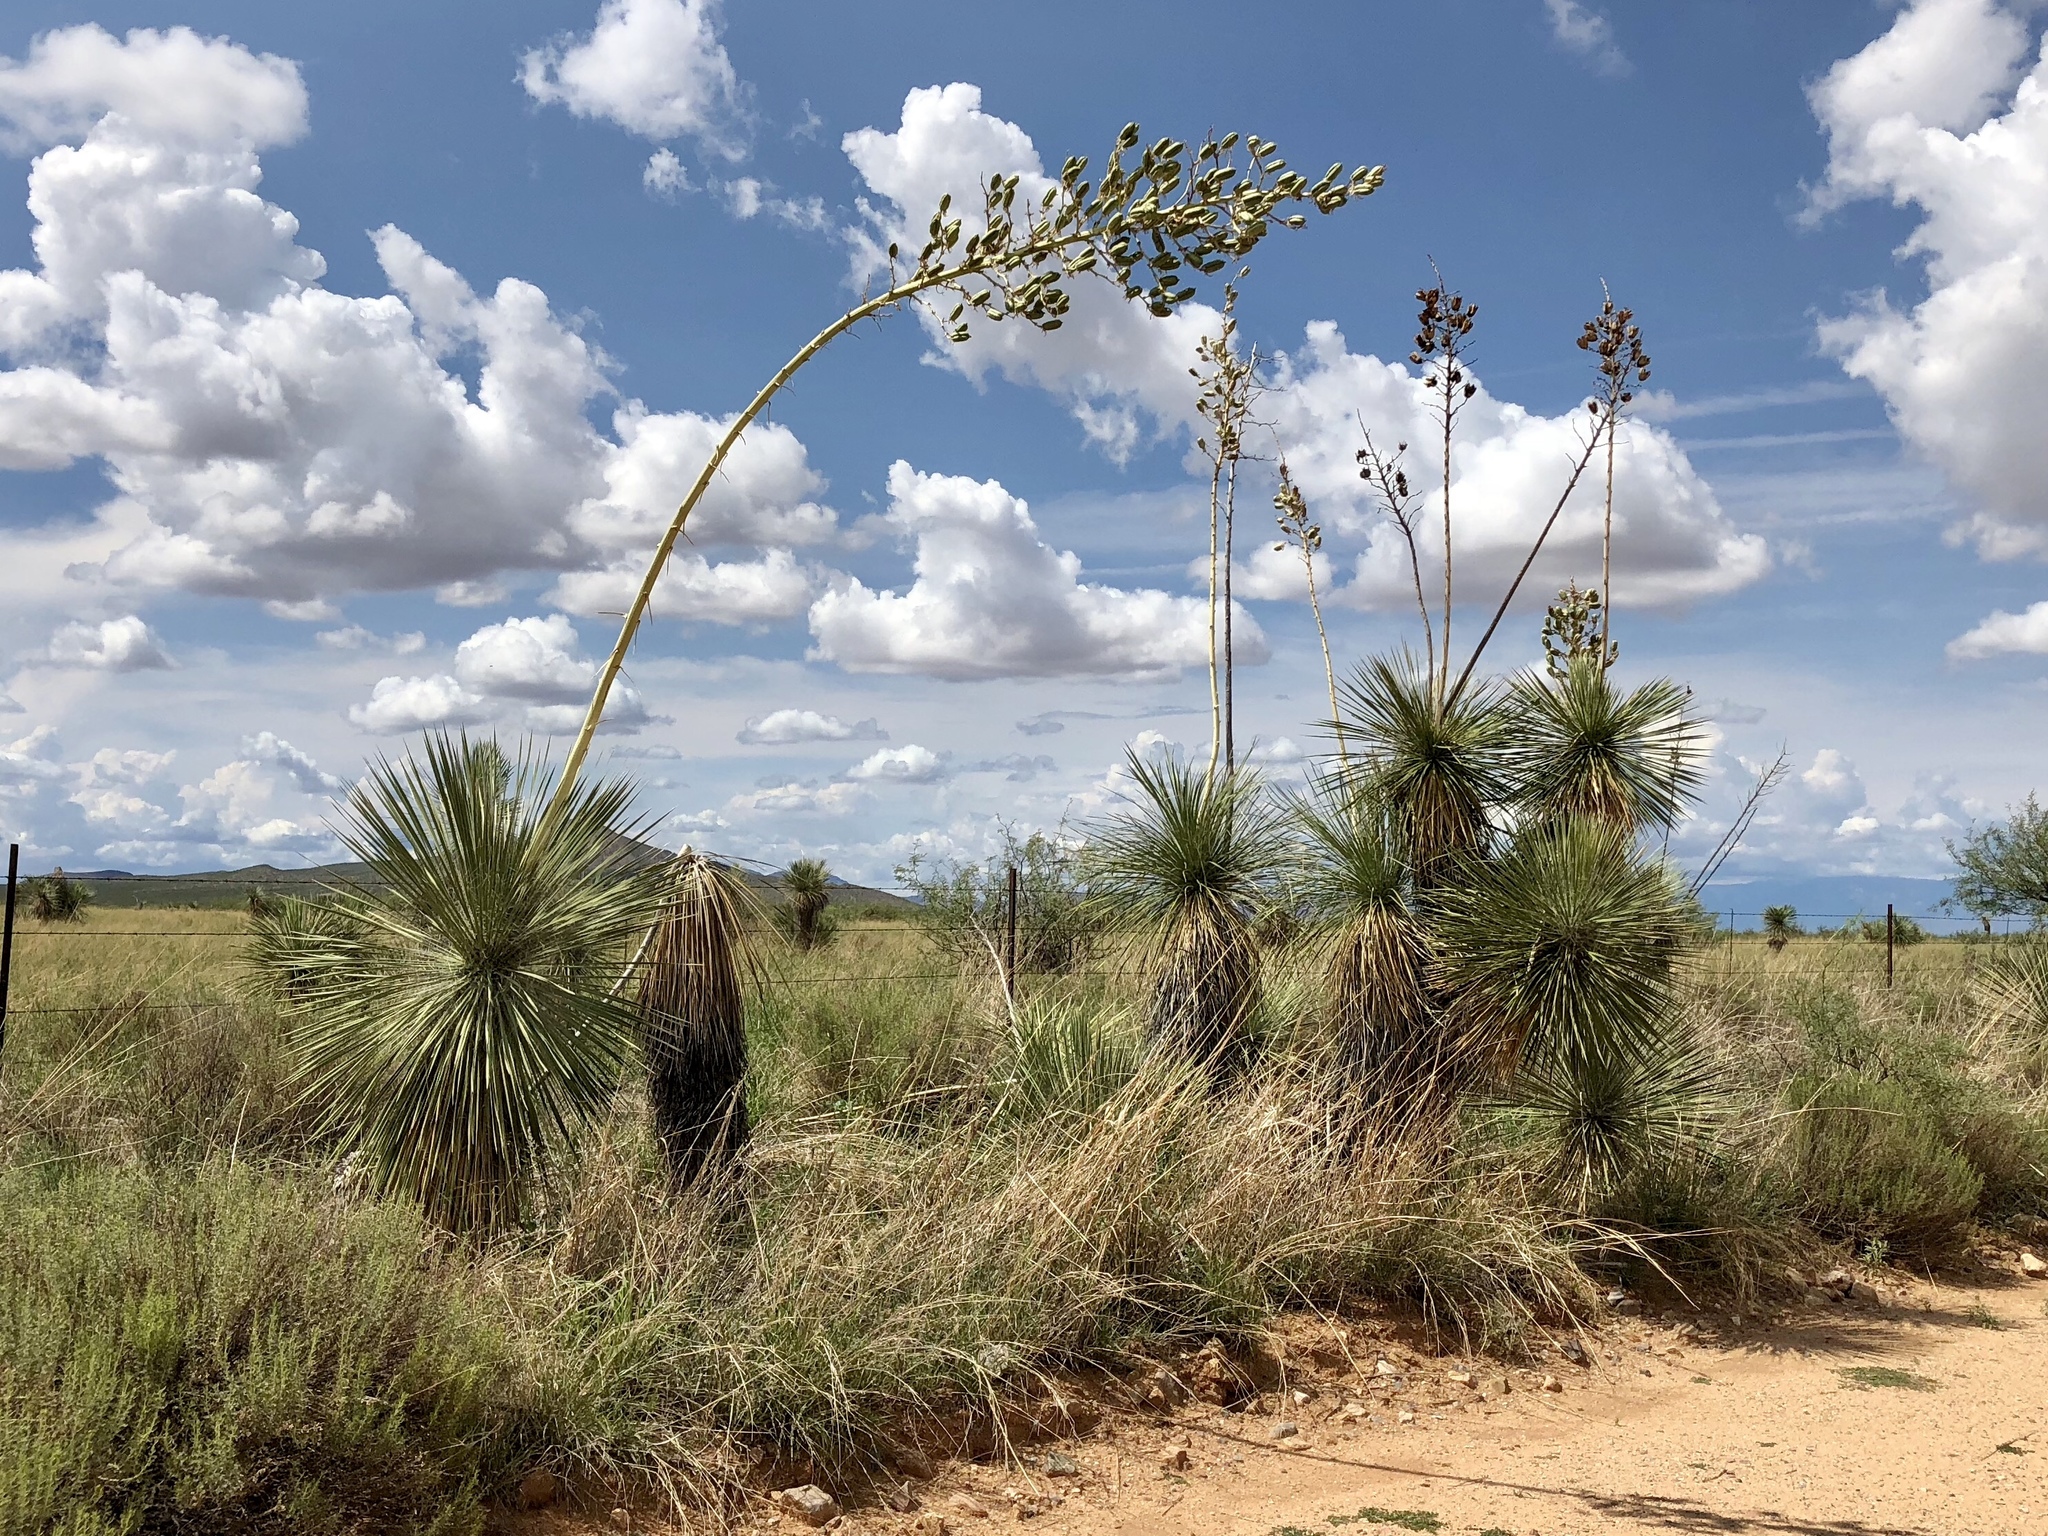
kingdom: Plantae
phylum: Tracheophyta
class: Liliopsida
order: Asparagales
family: Asparagaceae
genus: Yucca
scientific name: Yucca elata
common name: Palmella
